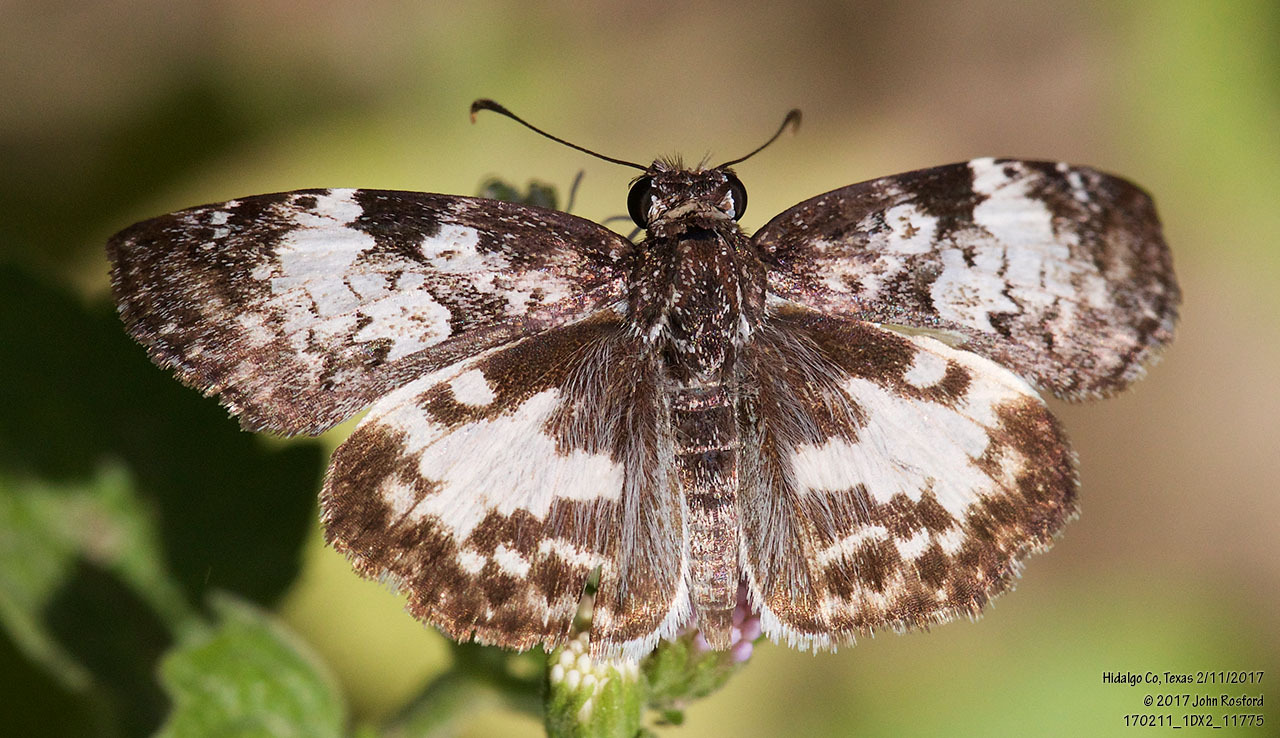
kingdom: Animalia
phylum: Arthropoda
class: Insecta
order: Lepidoptera
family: Hesperiidae
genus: Chiothion
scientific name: Chiothion georgina
